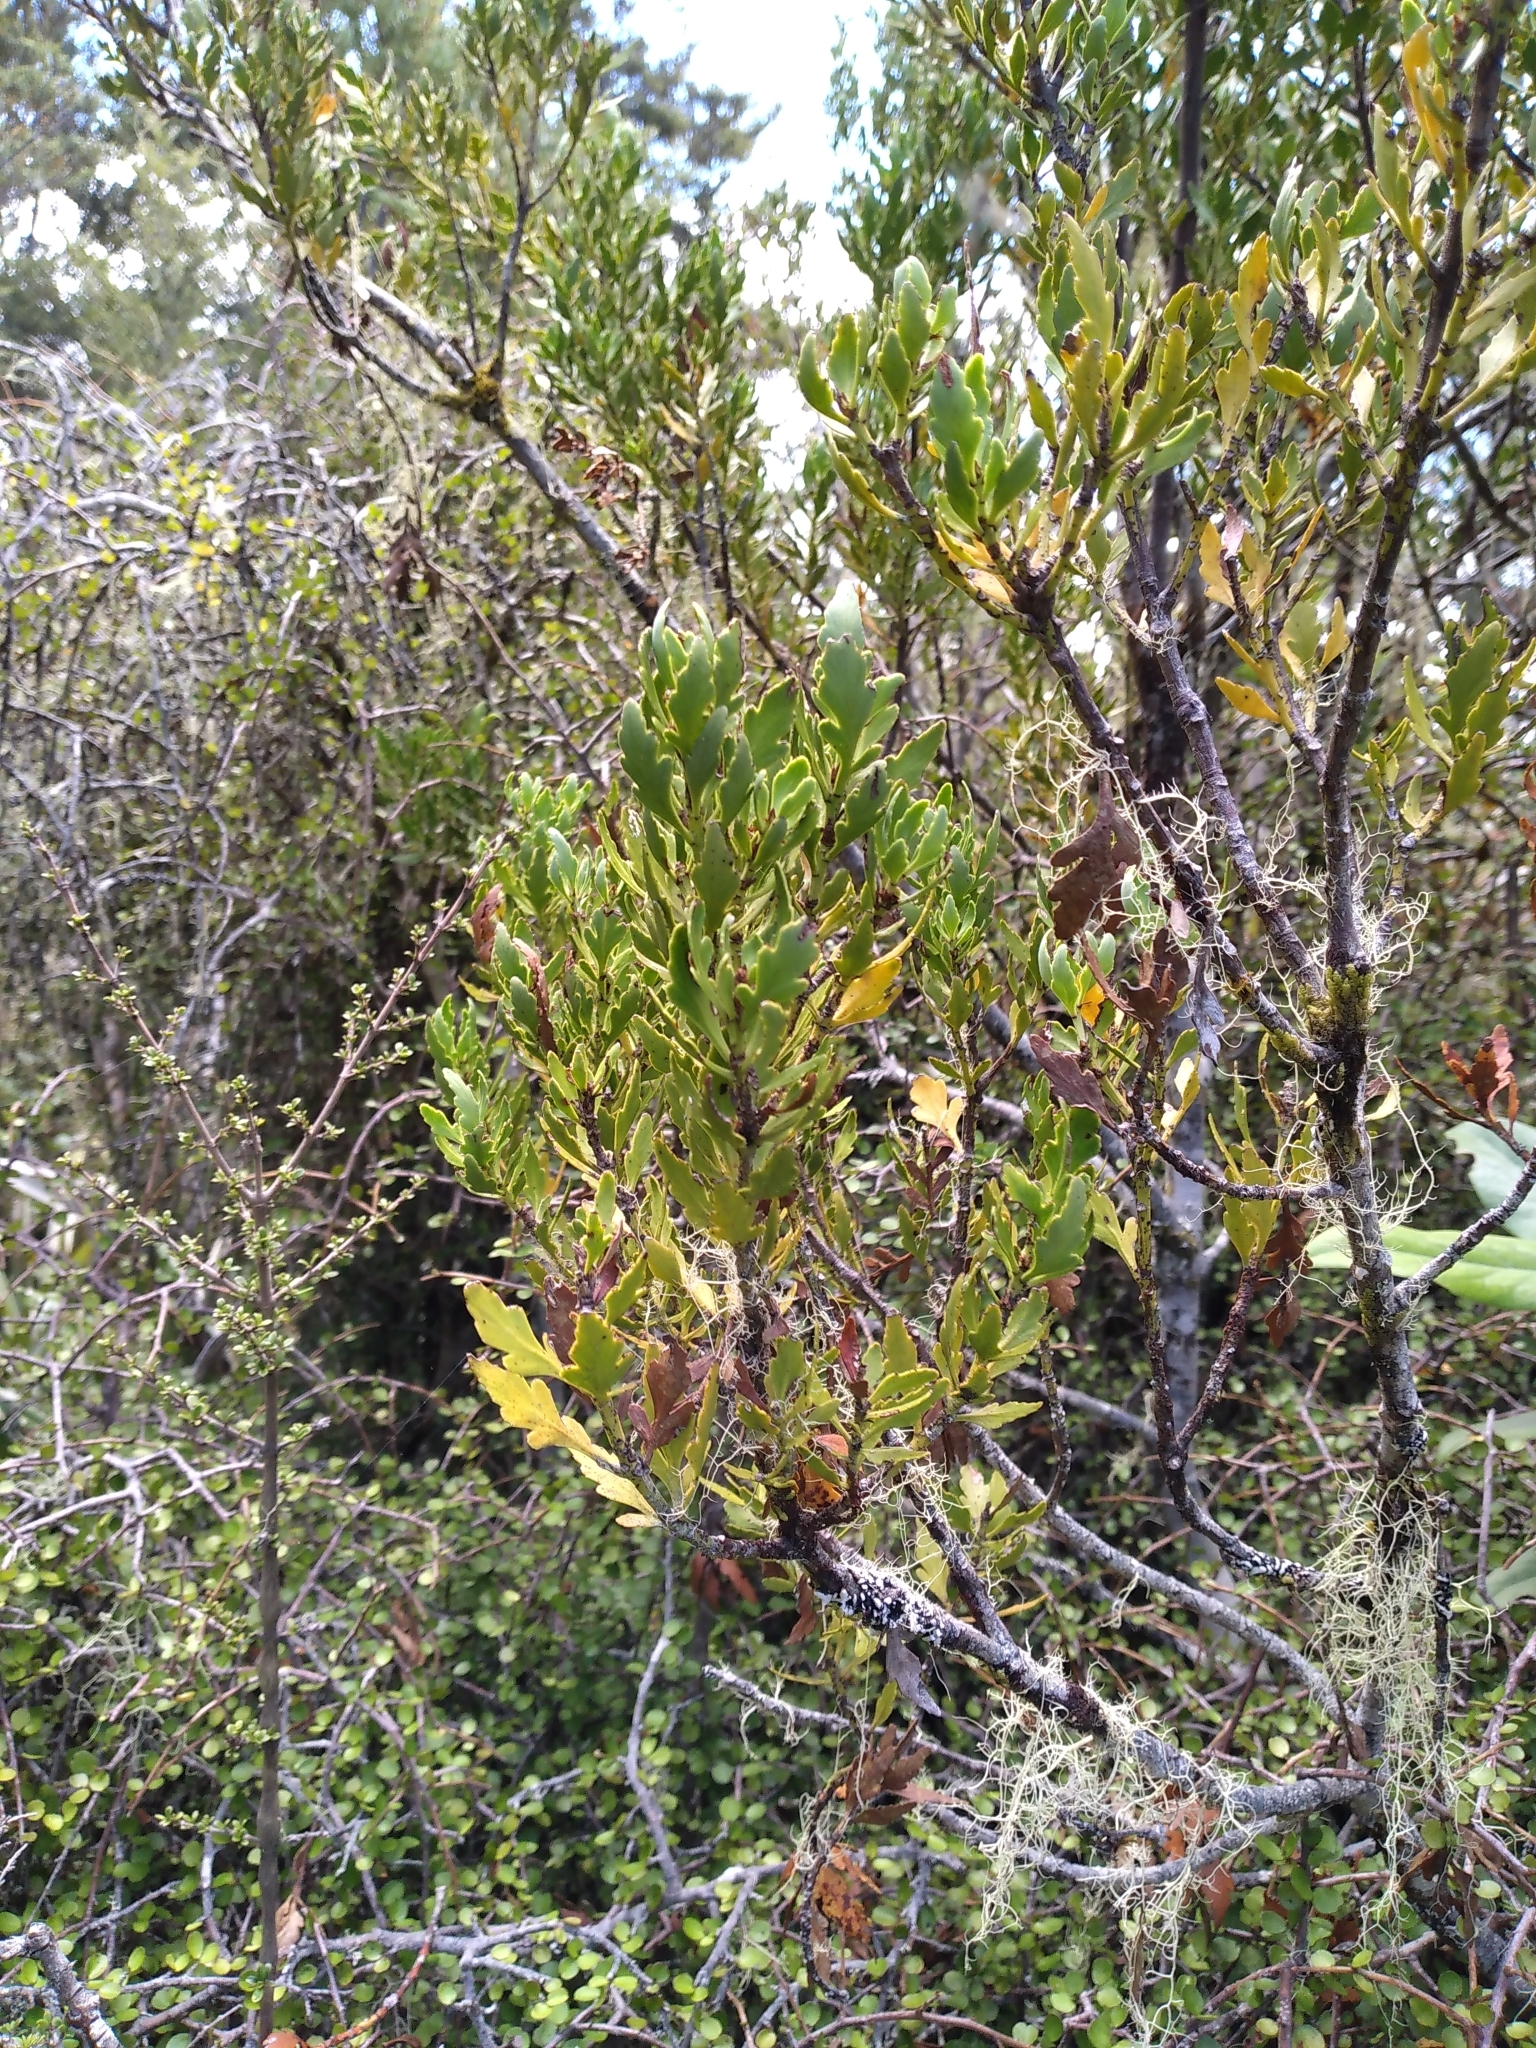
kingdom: Plantae
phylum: Tracheophyta
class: Pinopsida
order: Pinales
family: Phyllocladaceae
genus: Phyllocladus
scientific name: Phyllocladus trichomanoides
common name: Celery pine
